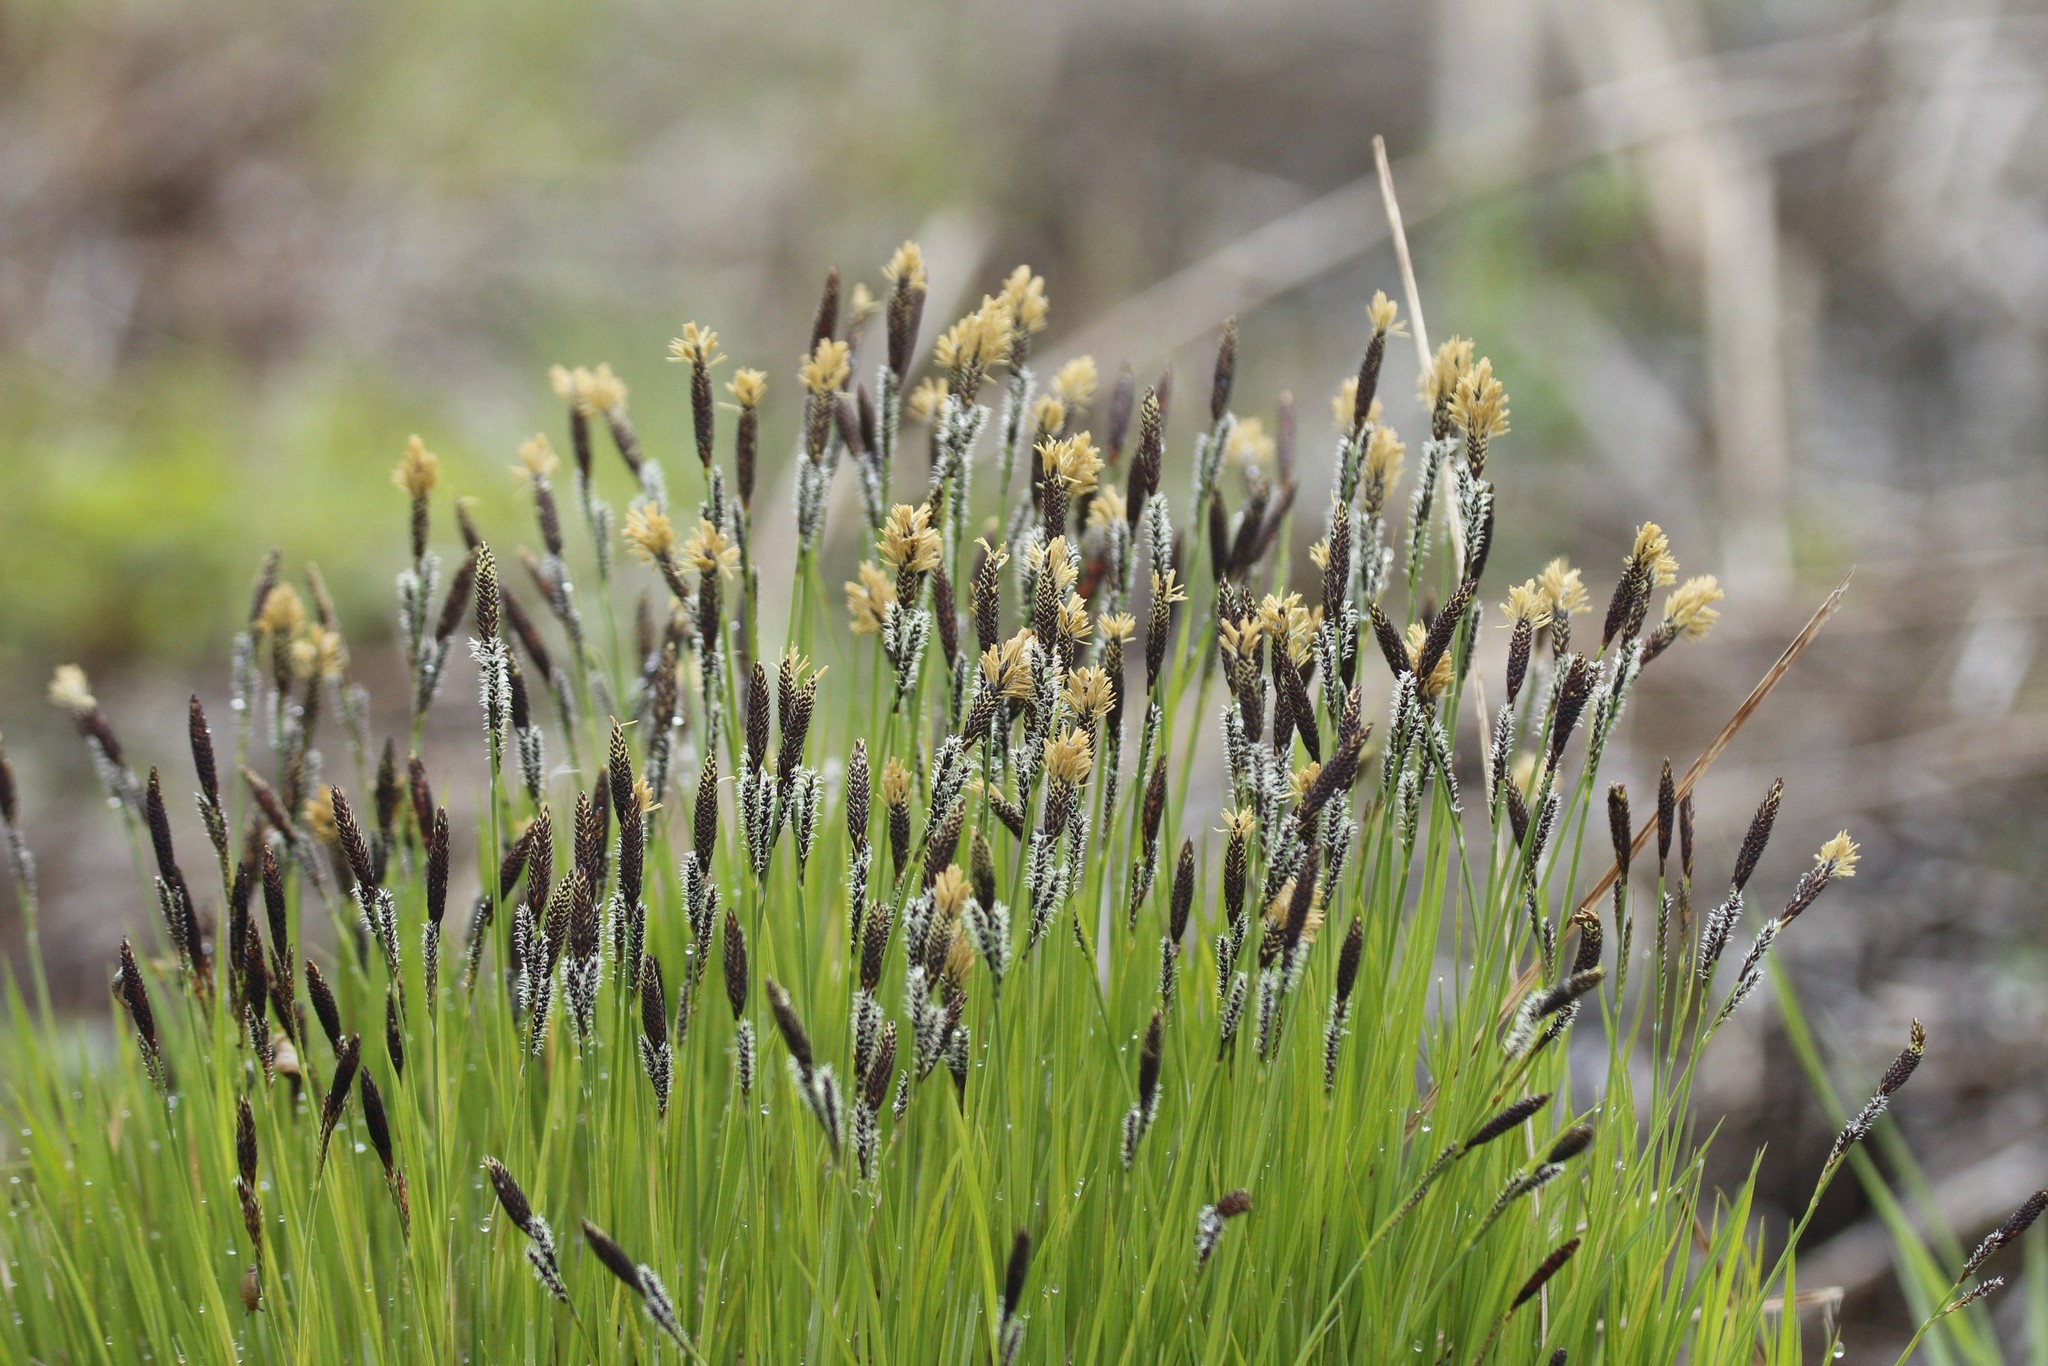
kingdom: Plantae
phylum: Tracheophyta
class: Liliopsida
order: Poales
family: Cyperaceae
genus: Carex
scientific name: Carex cespitosa
